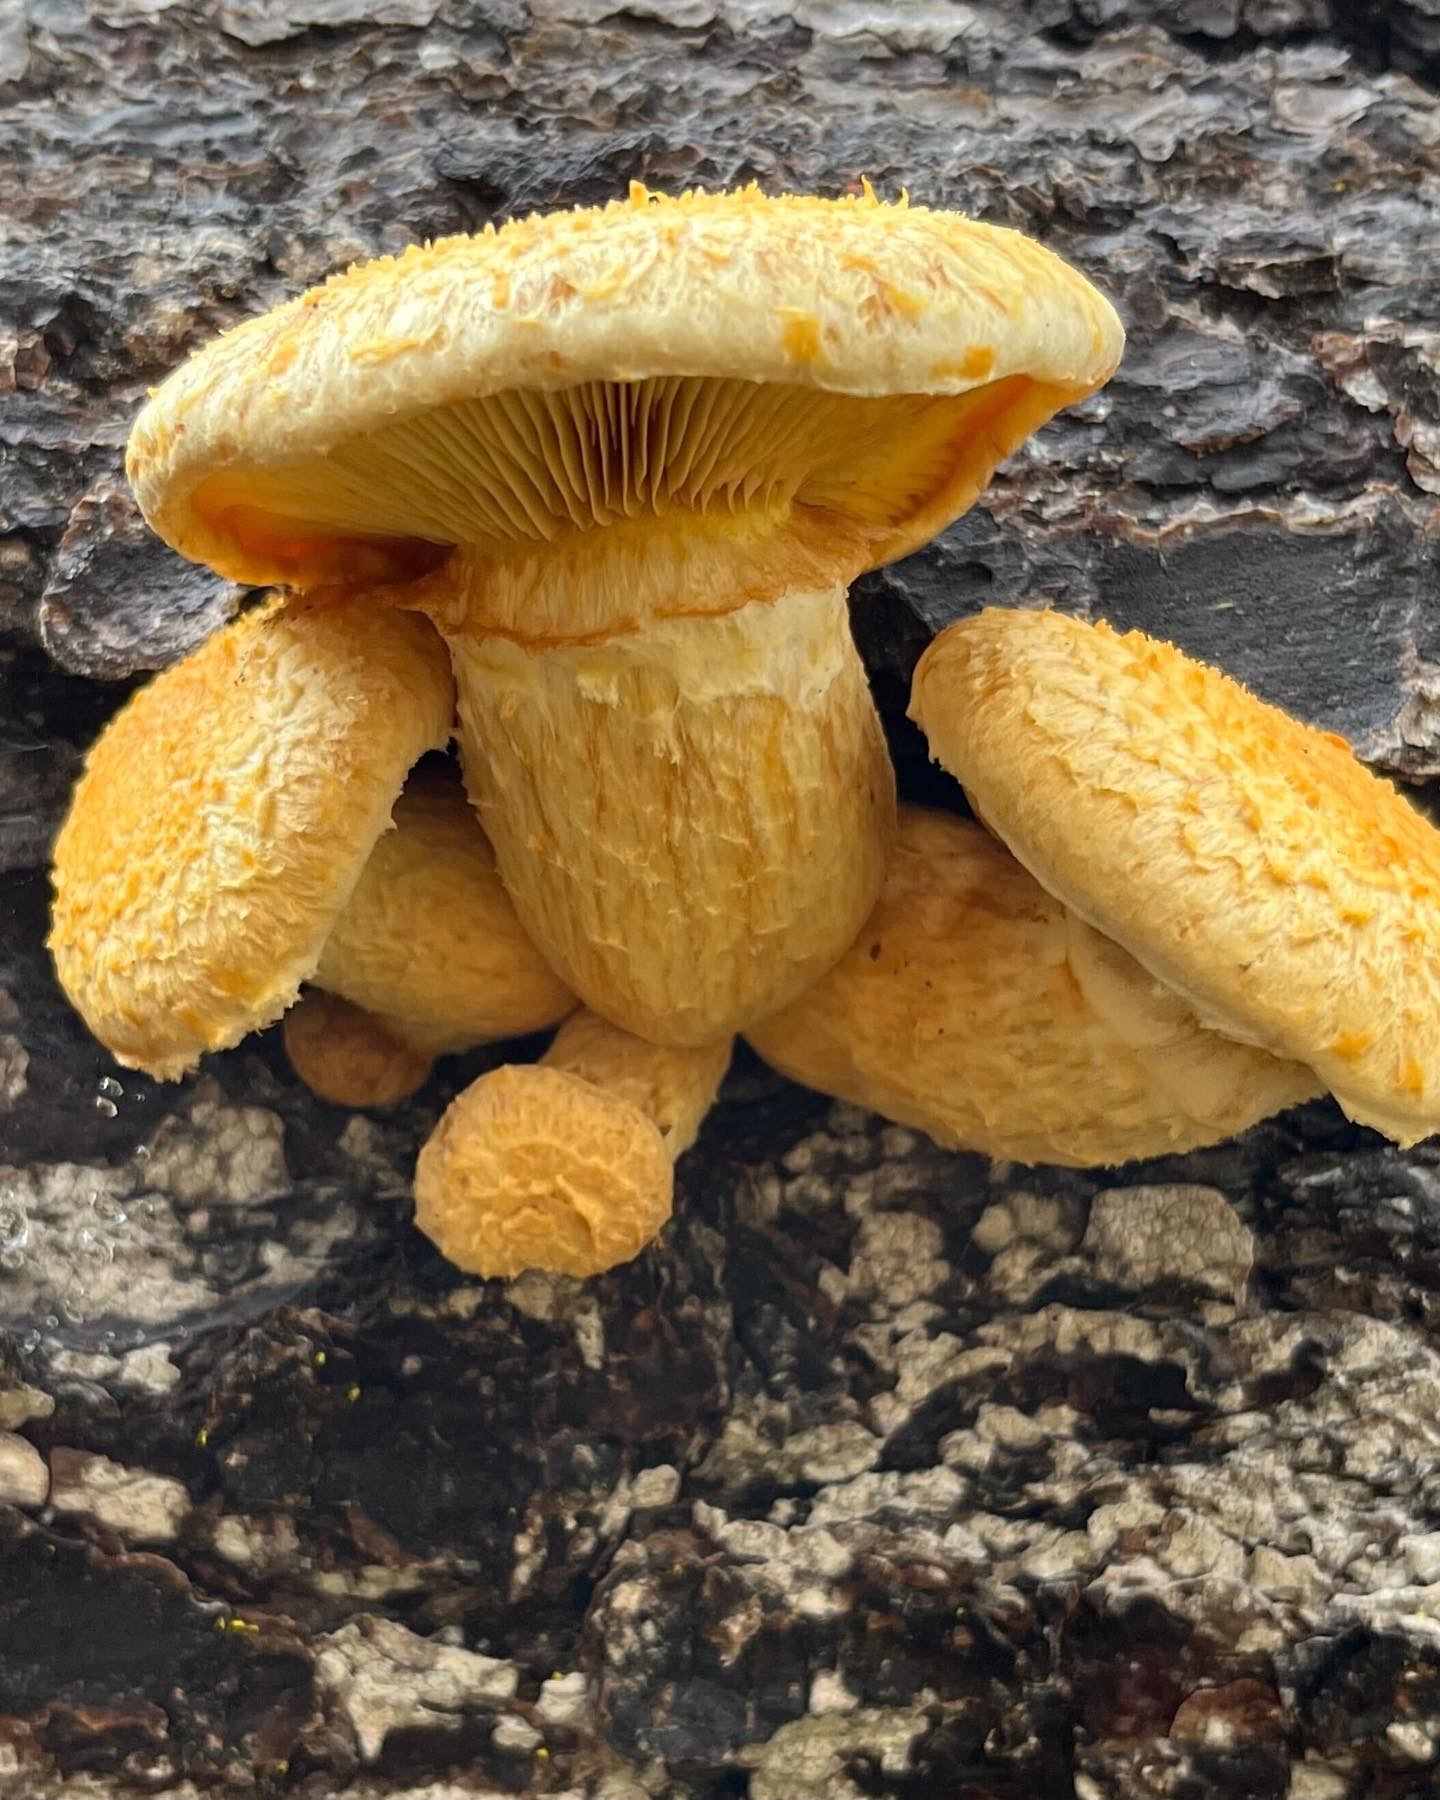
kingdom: Fungi
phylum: Basidiomycota
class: Agaricomycetes
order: Agaricales
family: Hymenogastraceae
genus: Gymnopilus
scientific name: Gymnopilus ventricosus
